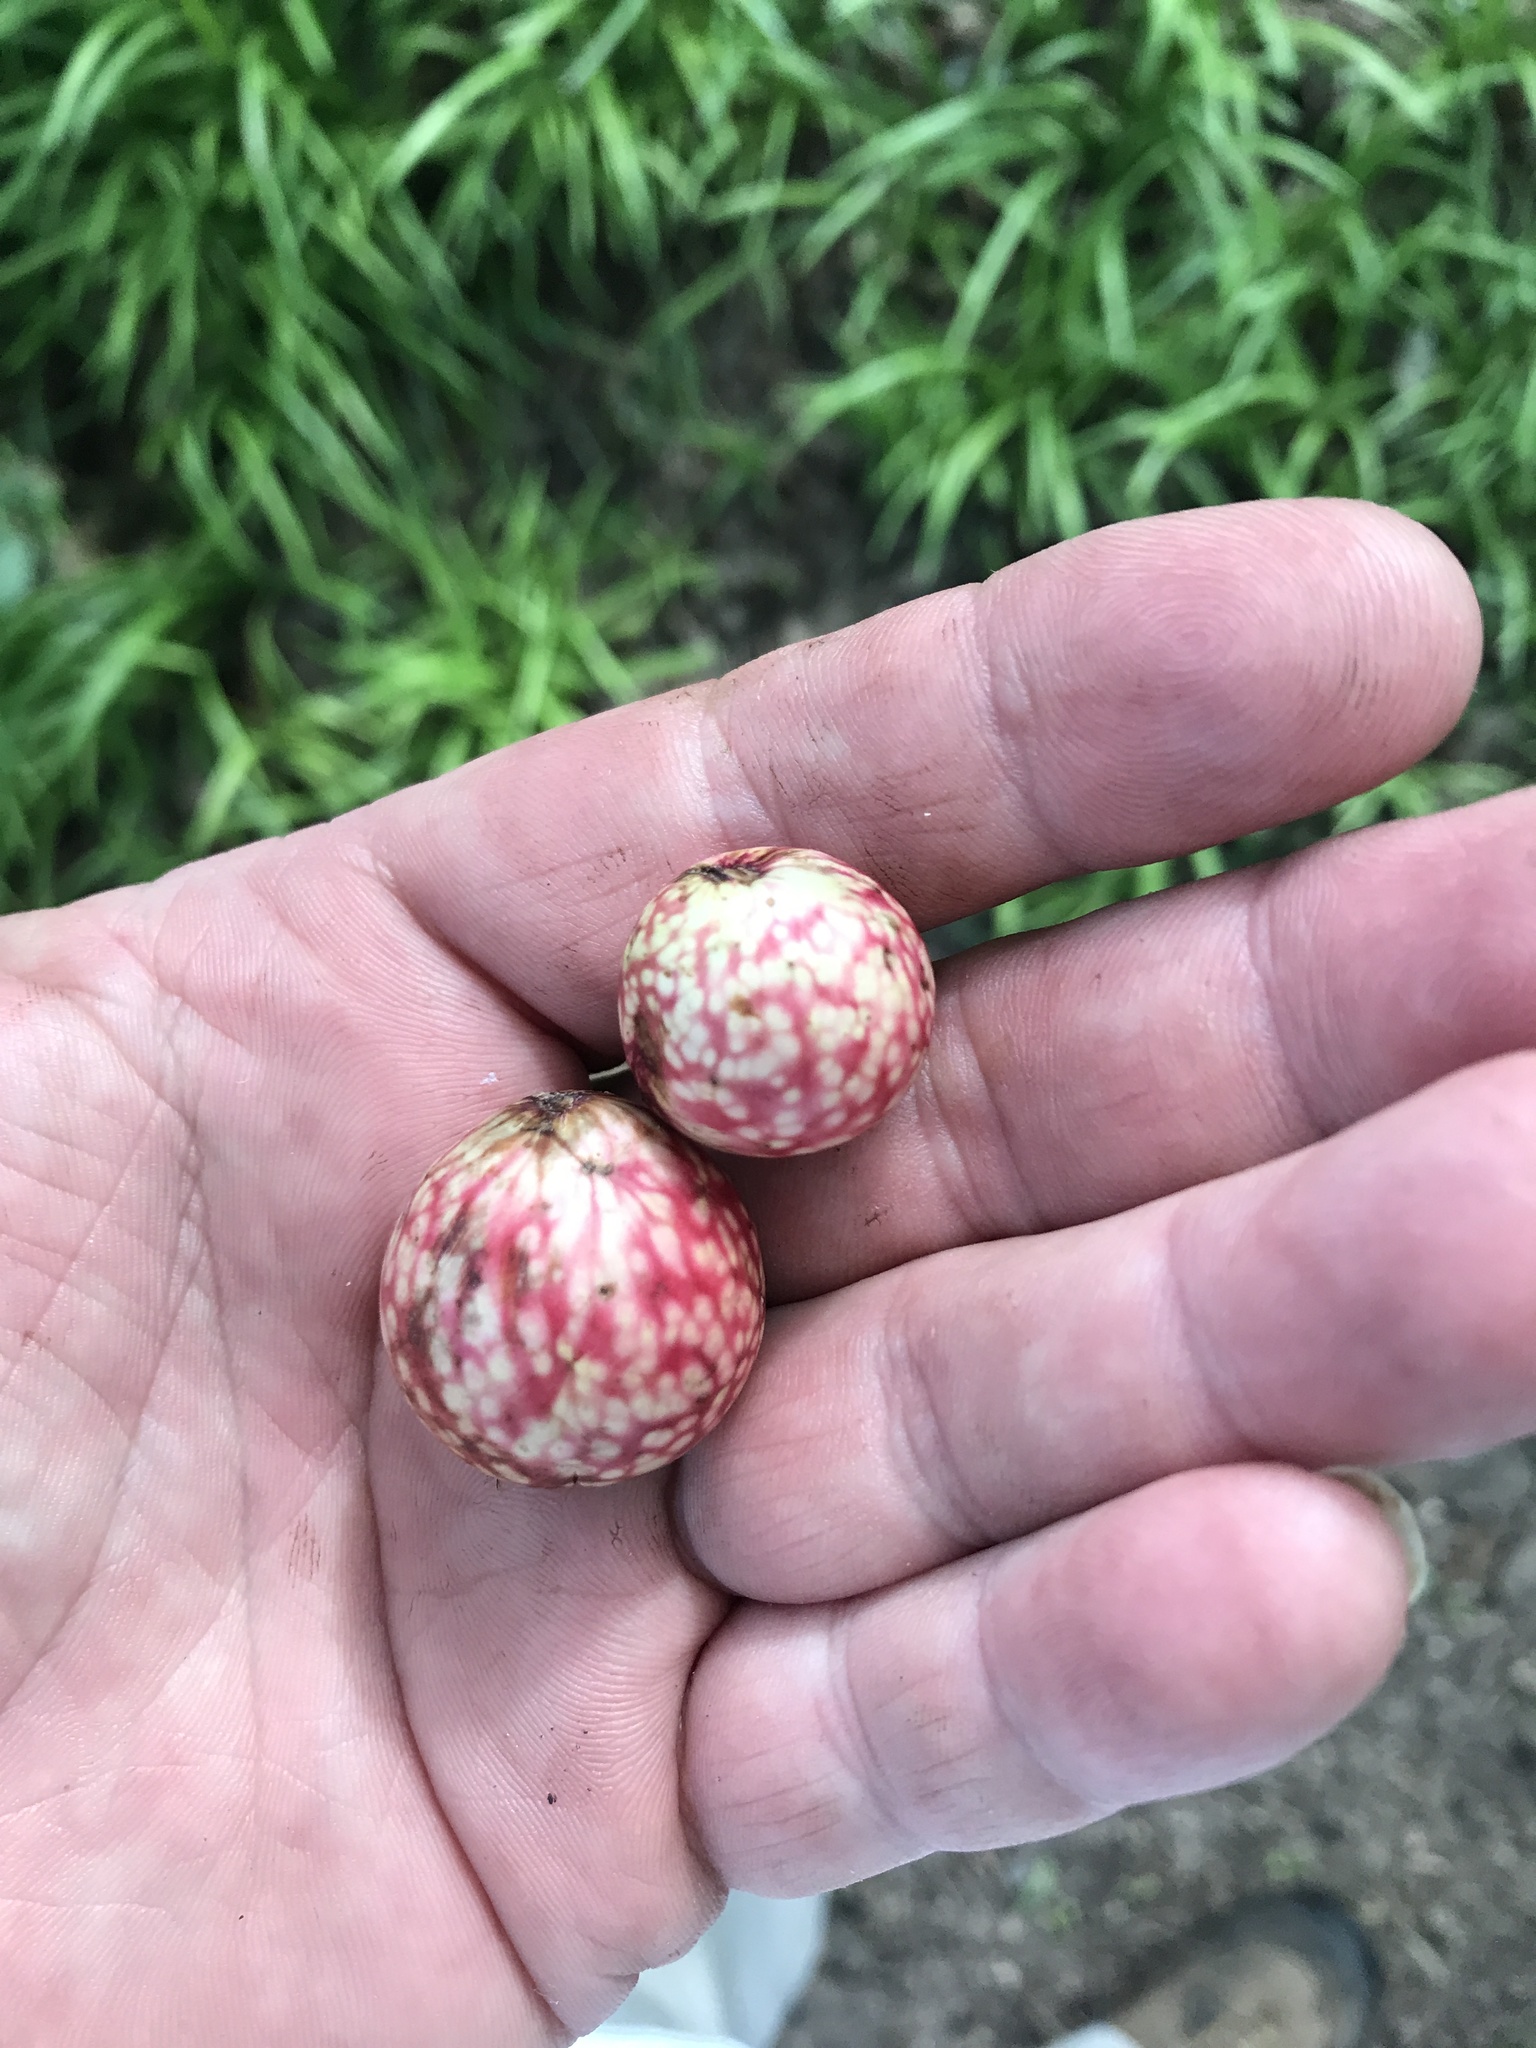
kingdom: Animalia
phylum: Arthropoda
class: Insecta
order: Hymenoptera
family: Cynipidae
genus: Amphibolips
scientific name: Amphibolips
